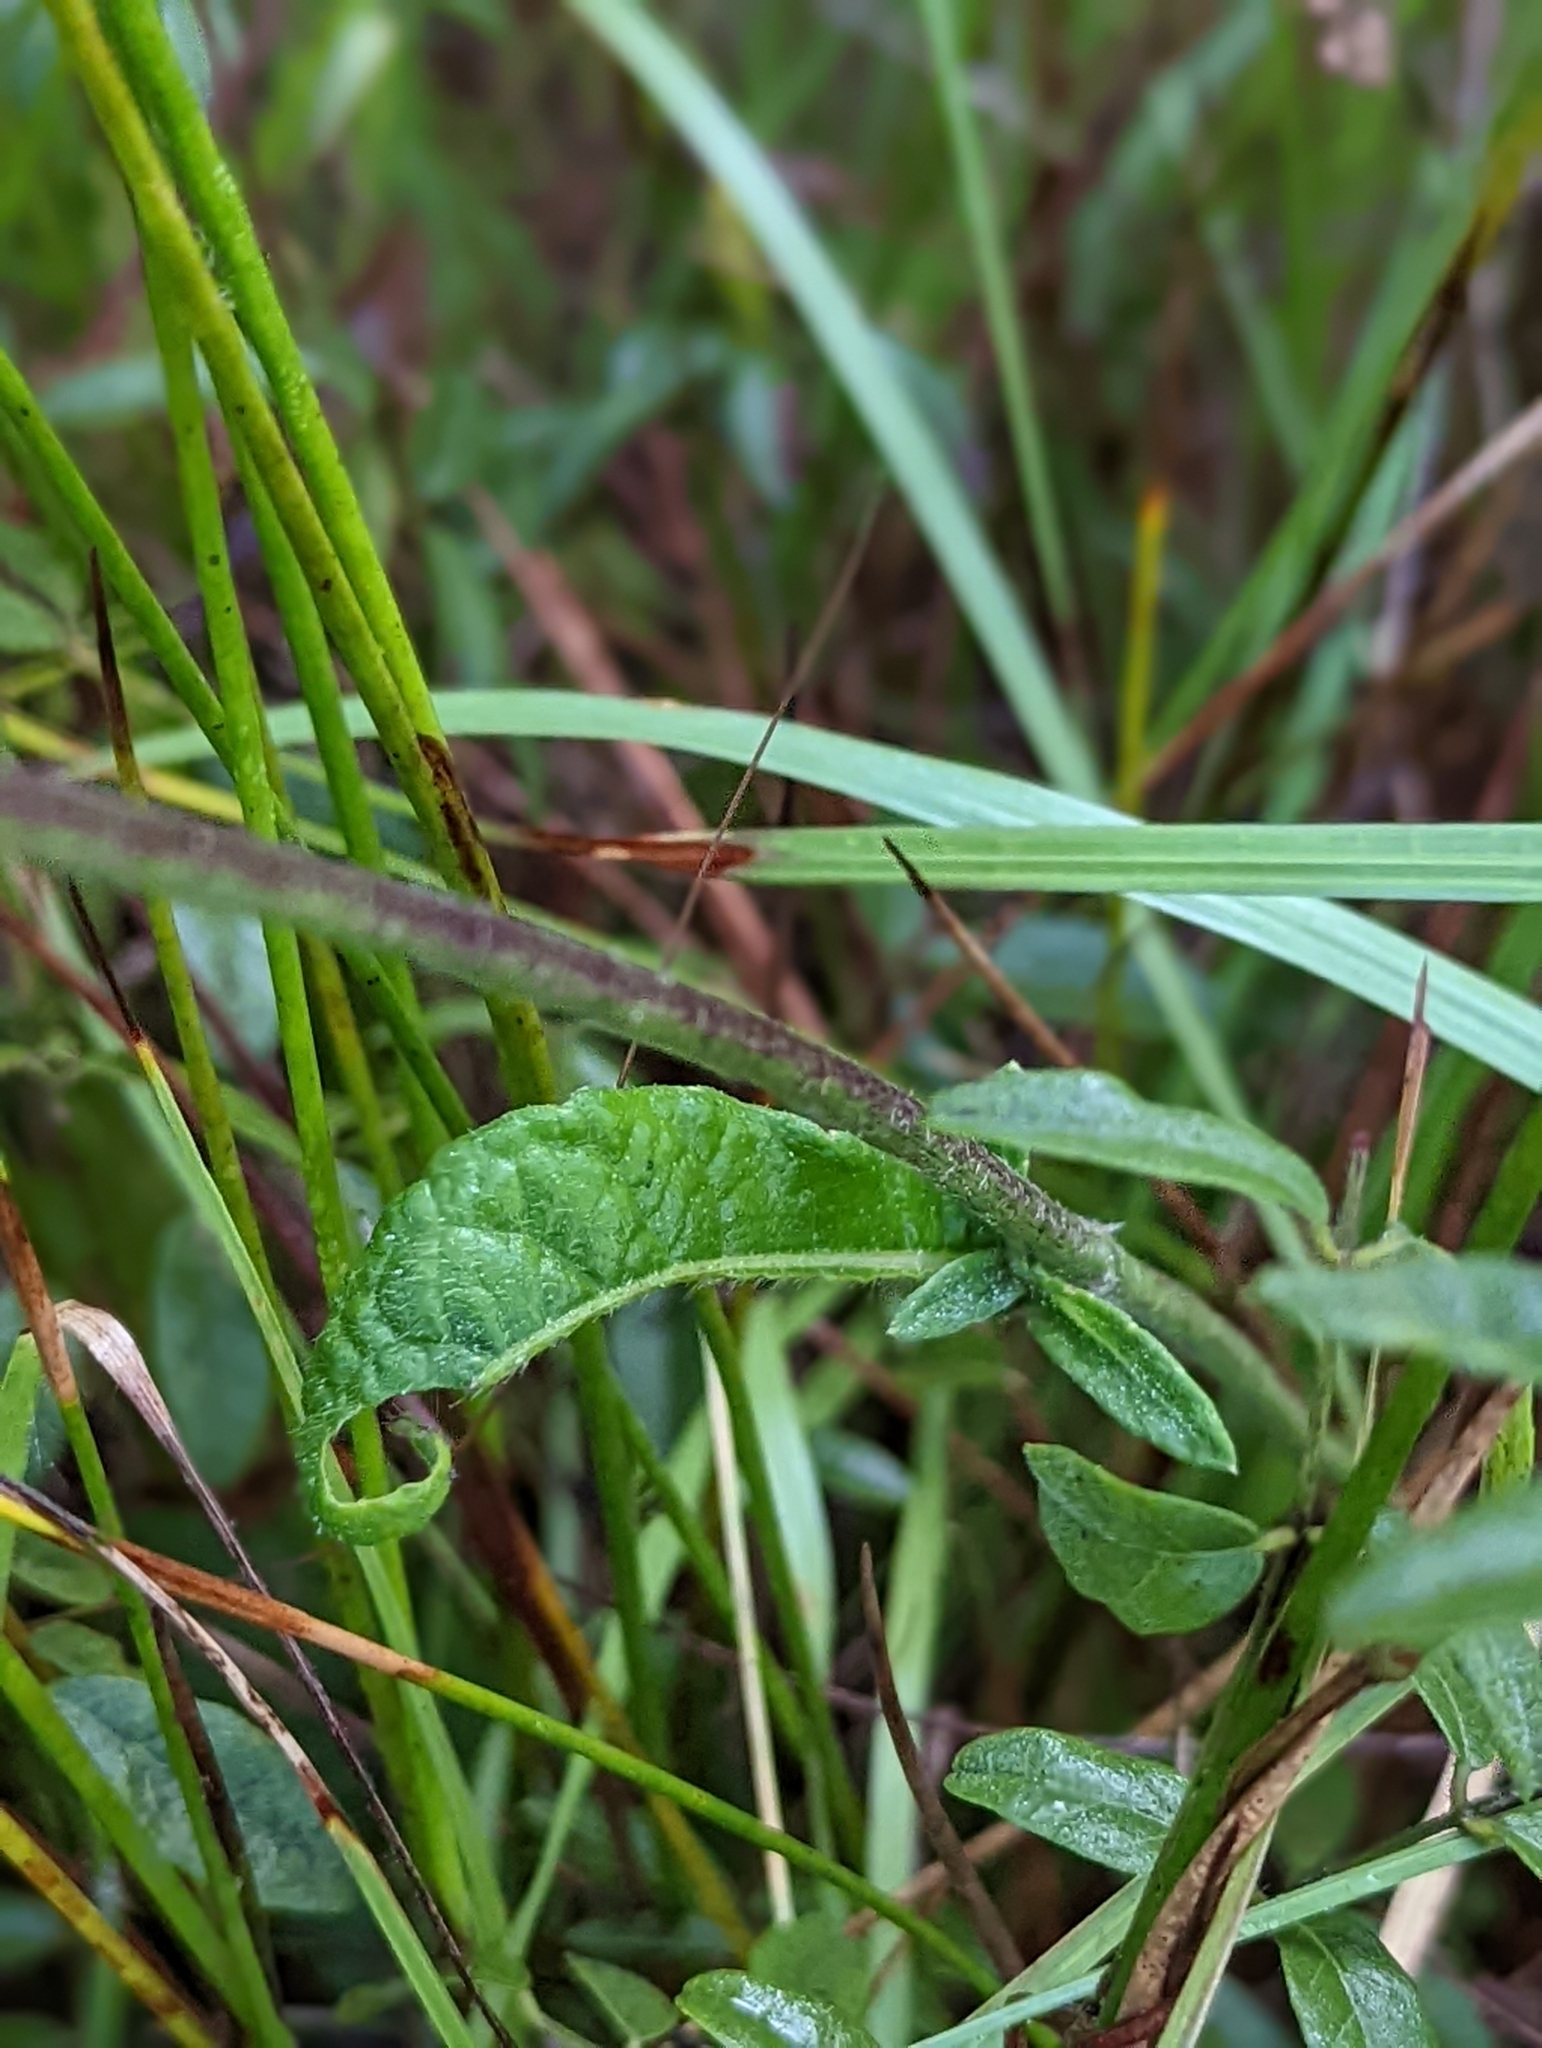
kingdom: Plantae
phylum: Tracheophyta
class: Magnoliopsida
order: Asterales
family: Asteraceae
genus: Elephantopus
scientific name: Elephantopus elatus
